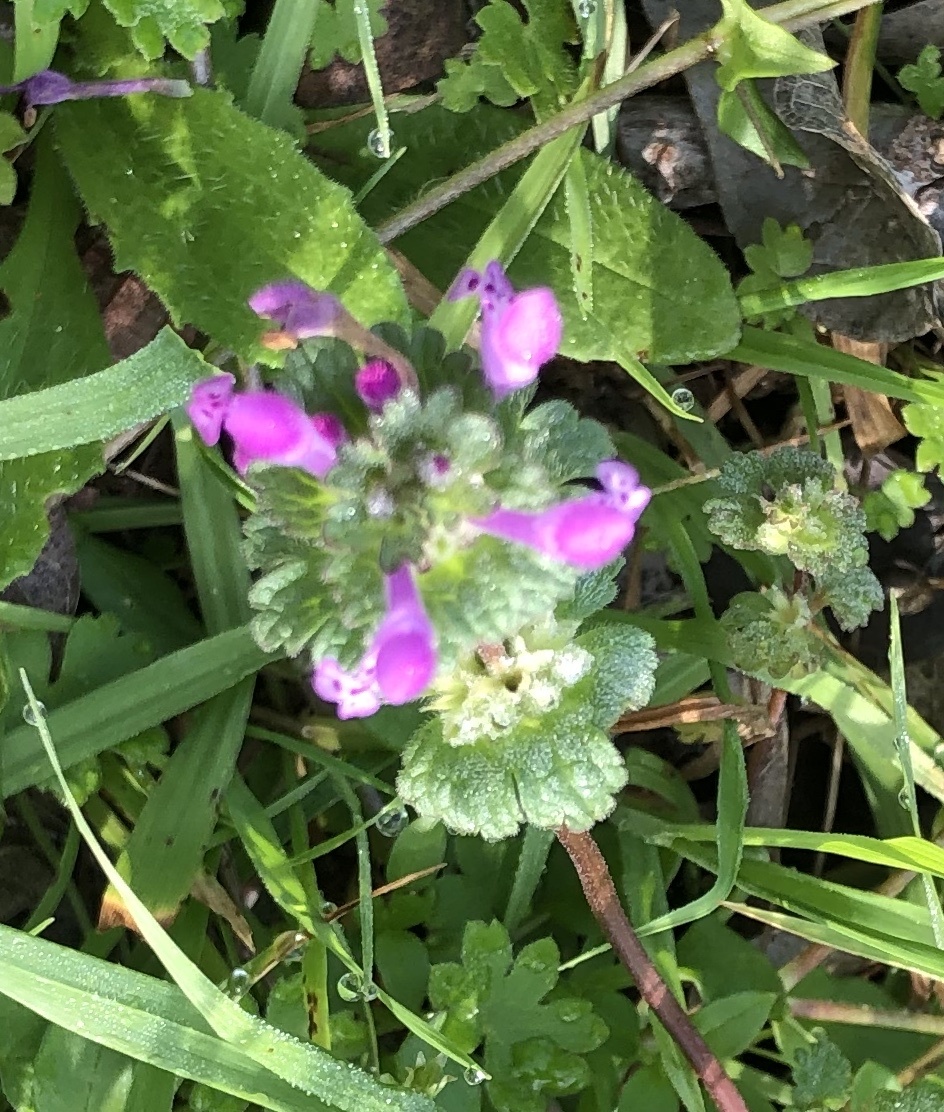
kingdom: Plantae
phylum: Tracheophyta
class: Magnoliopsida
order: Lamiales
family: Lamiaceae
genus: Lamium
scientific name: Lamium amplexicaule
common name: Henbit dead-nettle
